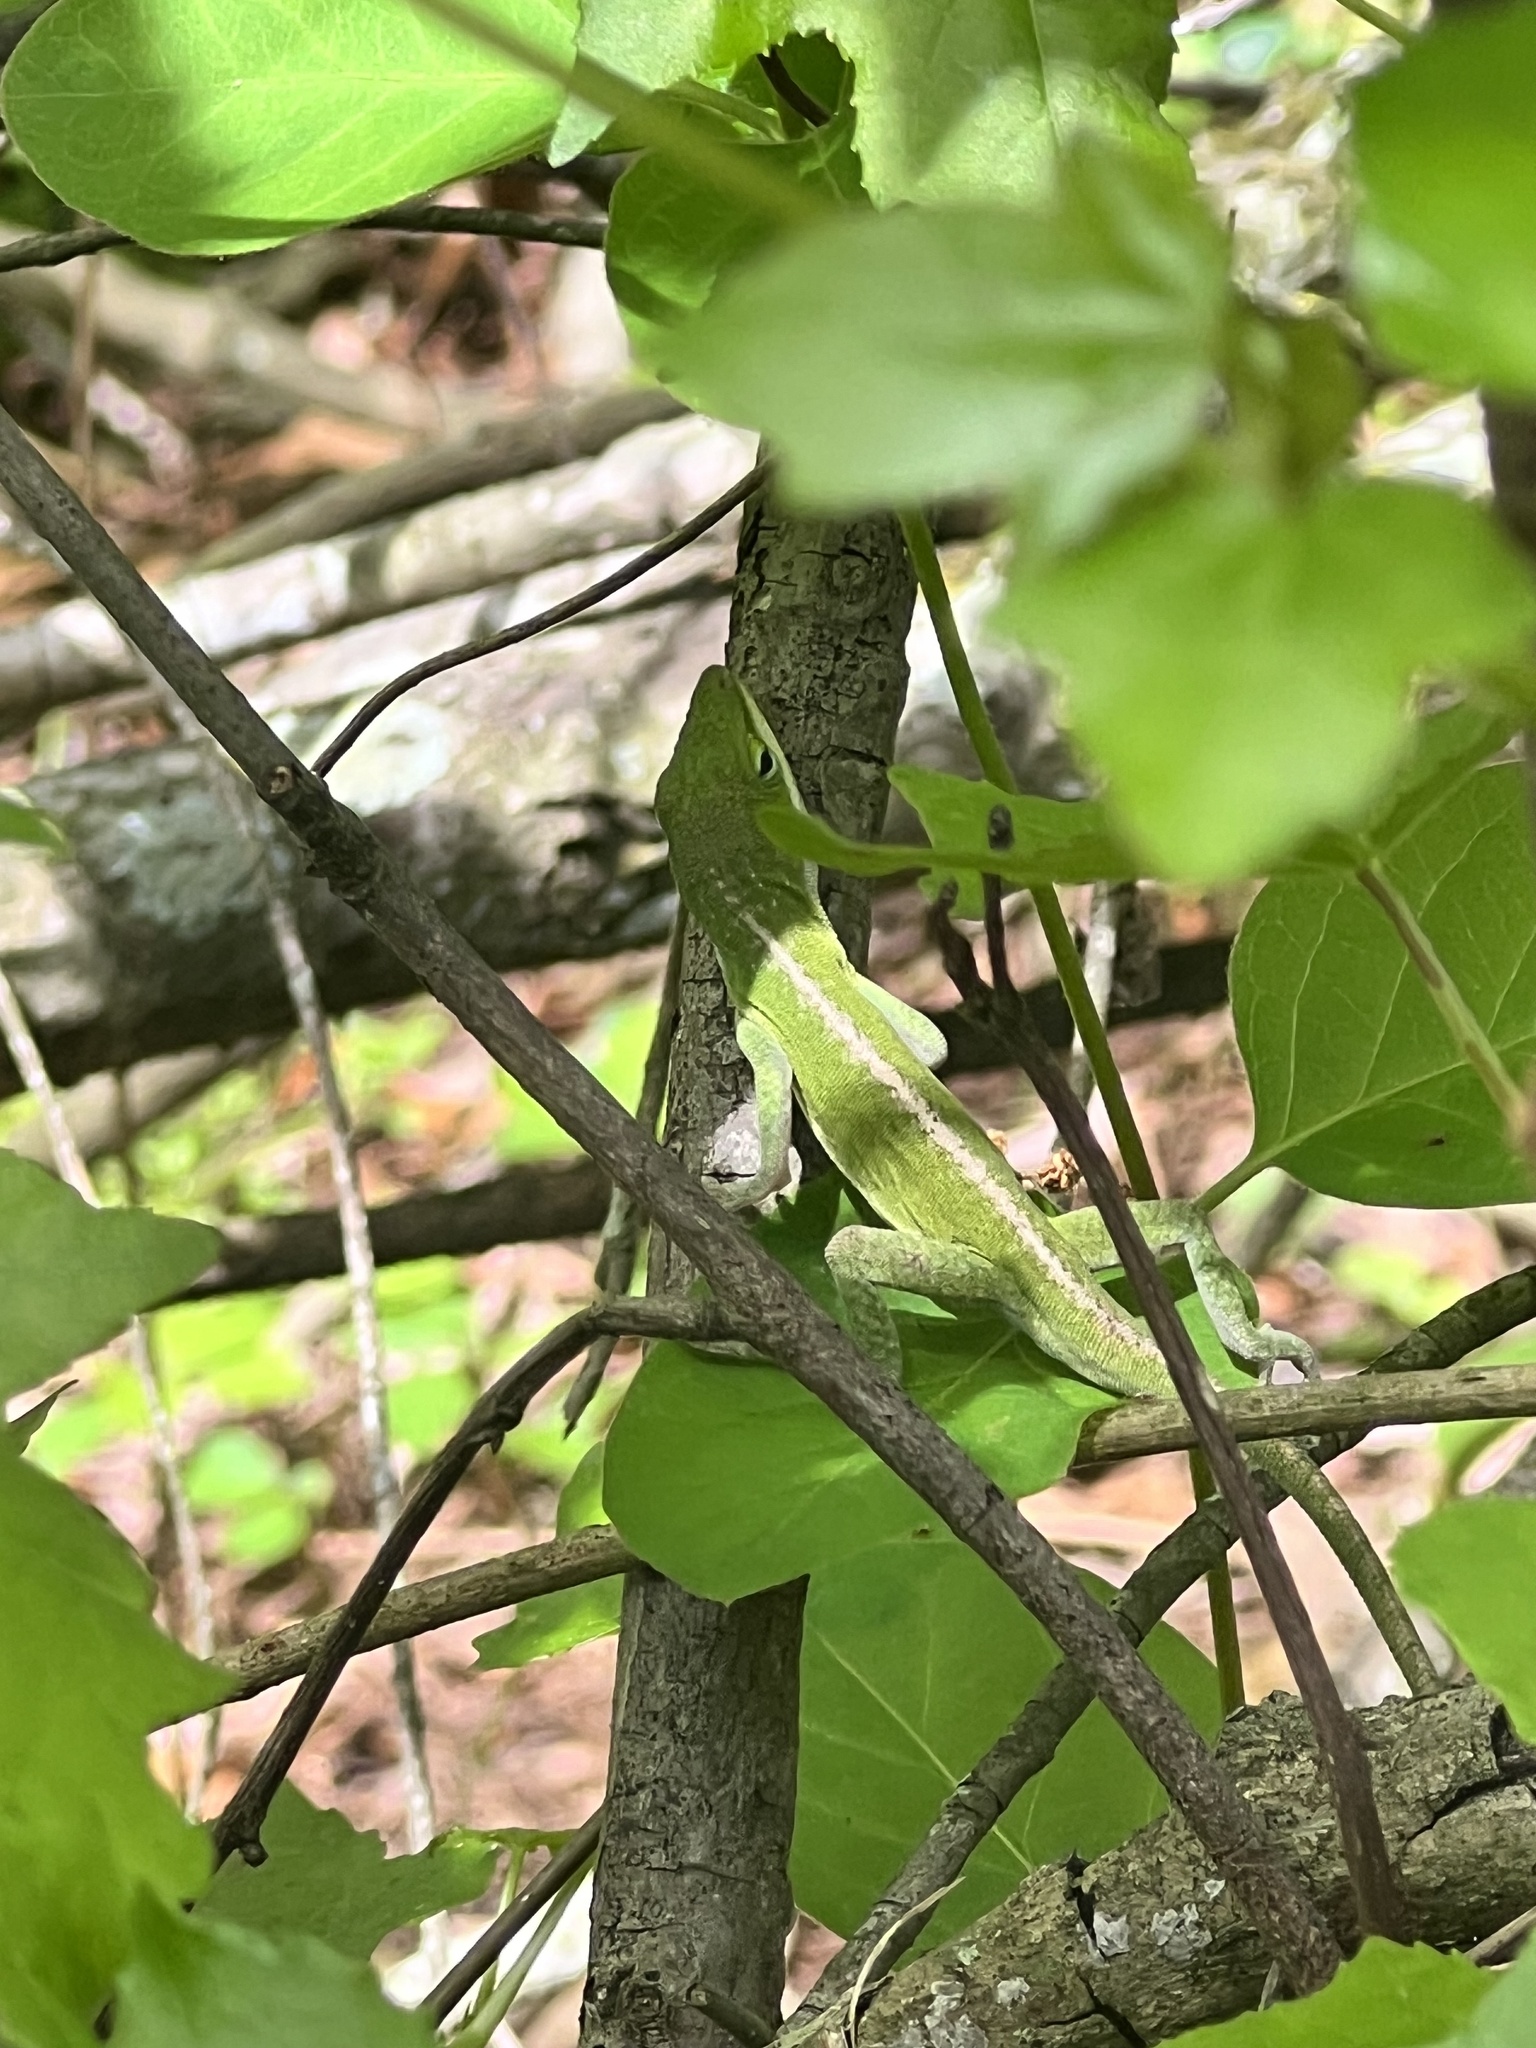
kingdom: Animalia
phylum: Chordata
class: Squamata
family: Dactyloidae
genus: Anolis
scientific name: Anolis carolinensis
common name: Green anole
